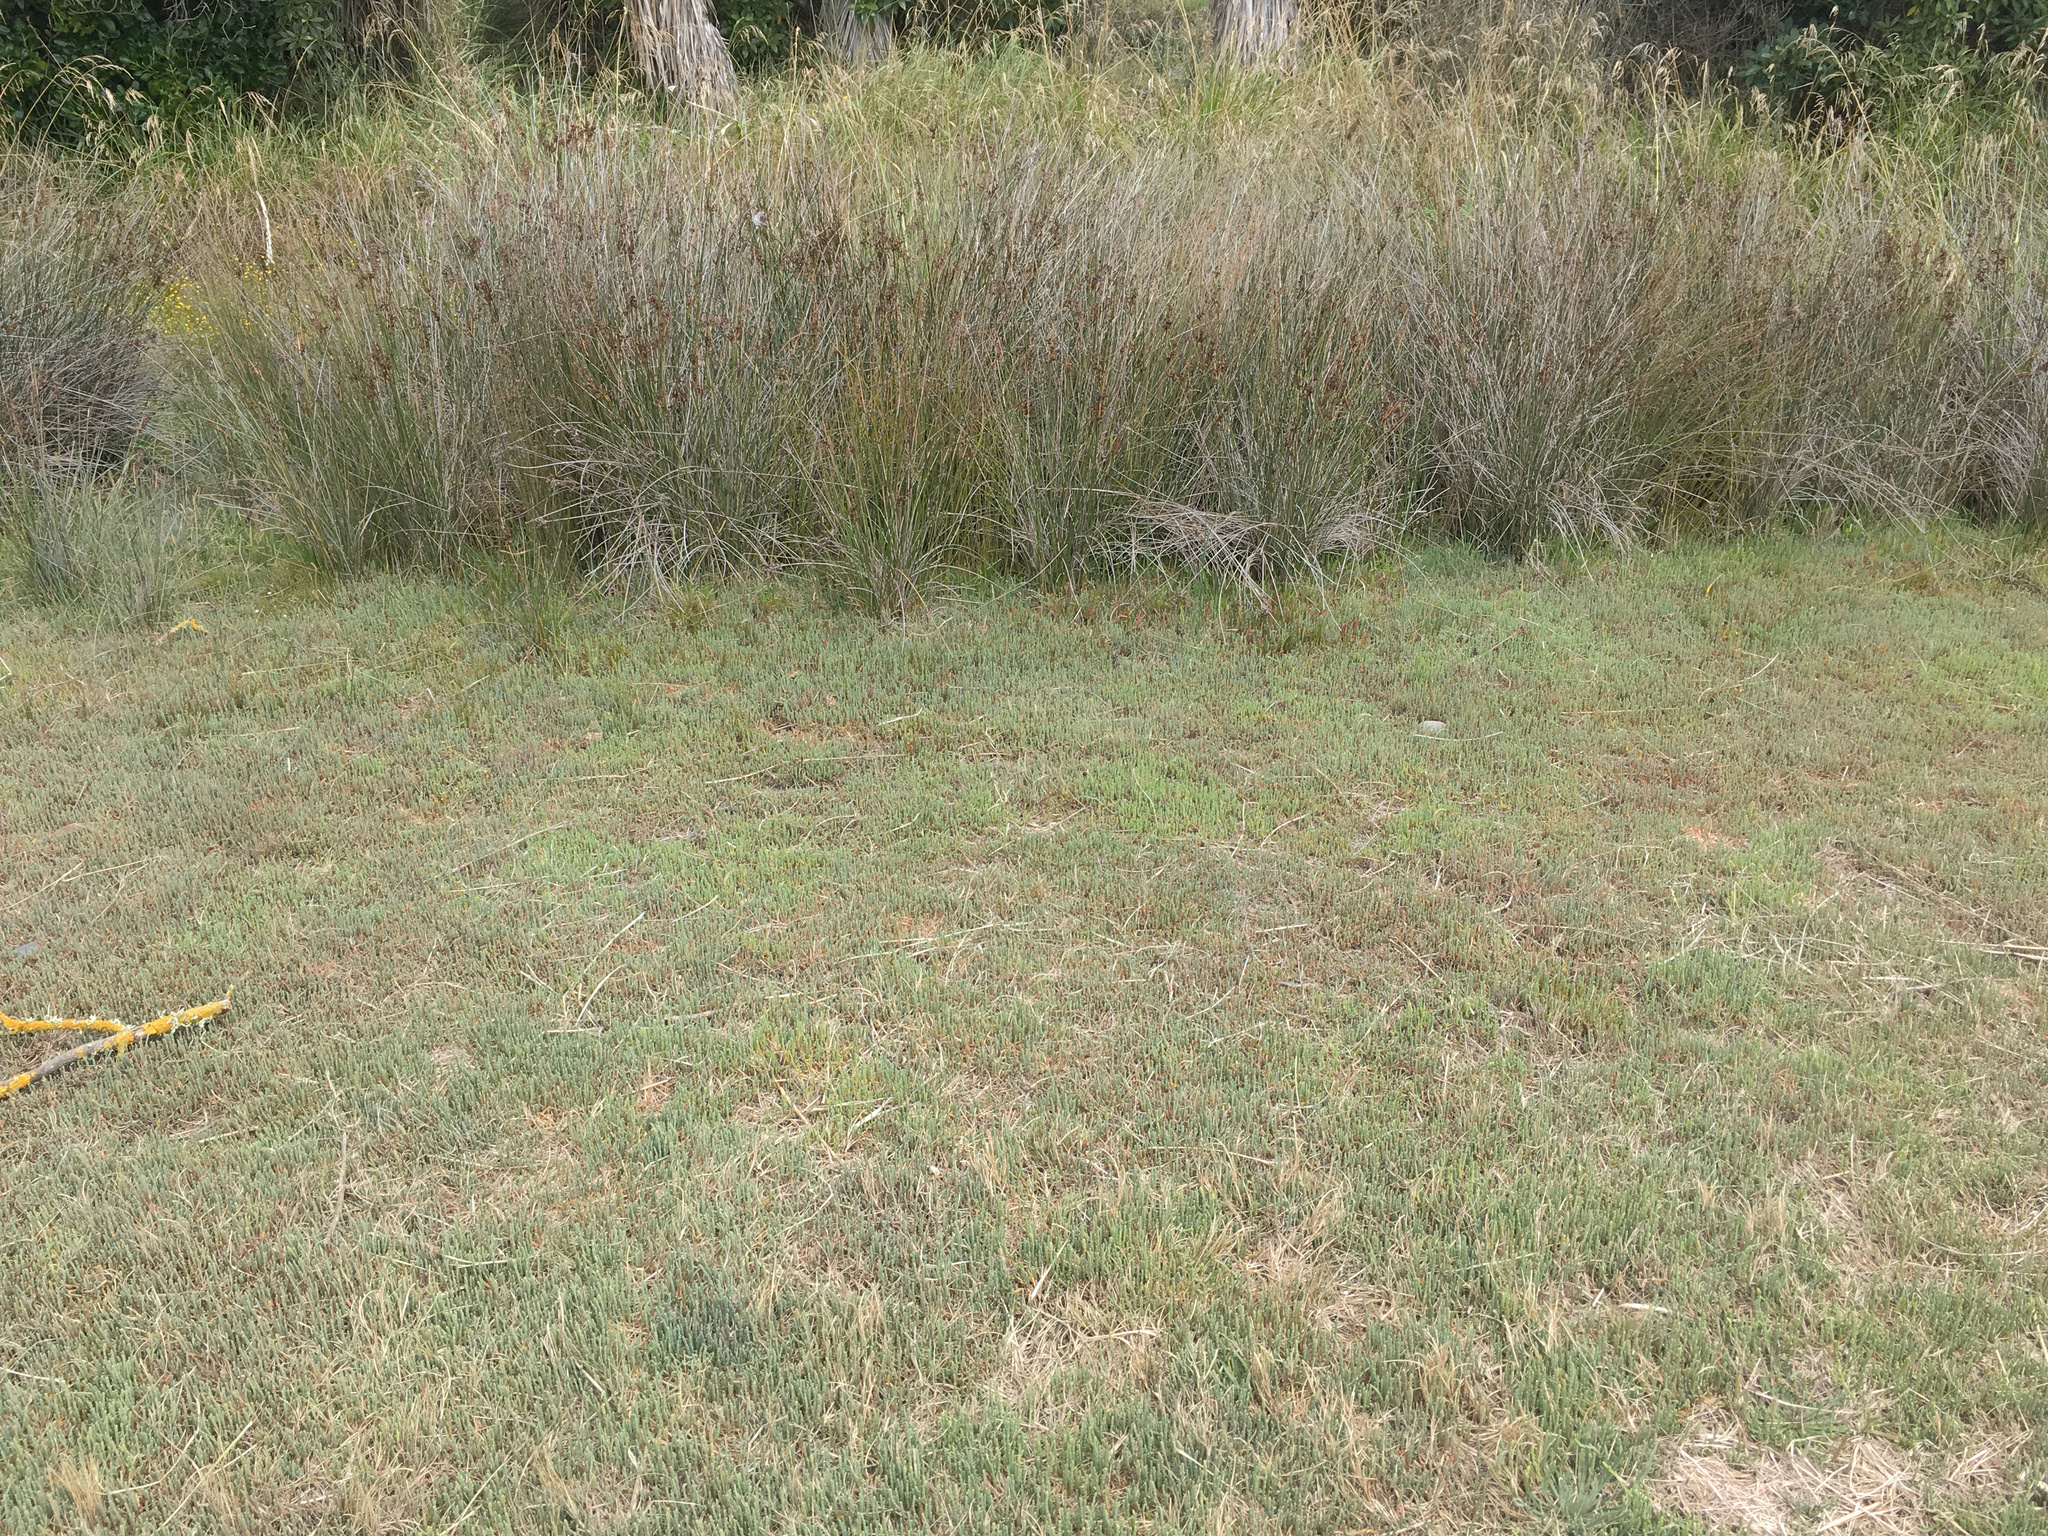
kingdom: Plantae
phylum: Tracheophyta
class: Magnoliopsida
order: Caryophyllales
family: Amaranthaceae
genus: Salicornia
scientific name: Salicornia quinqueflora
